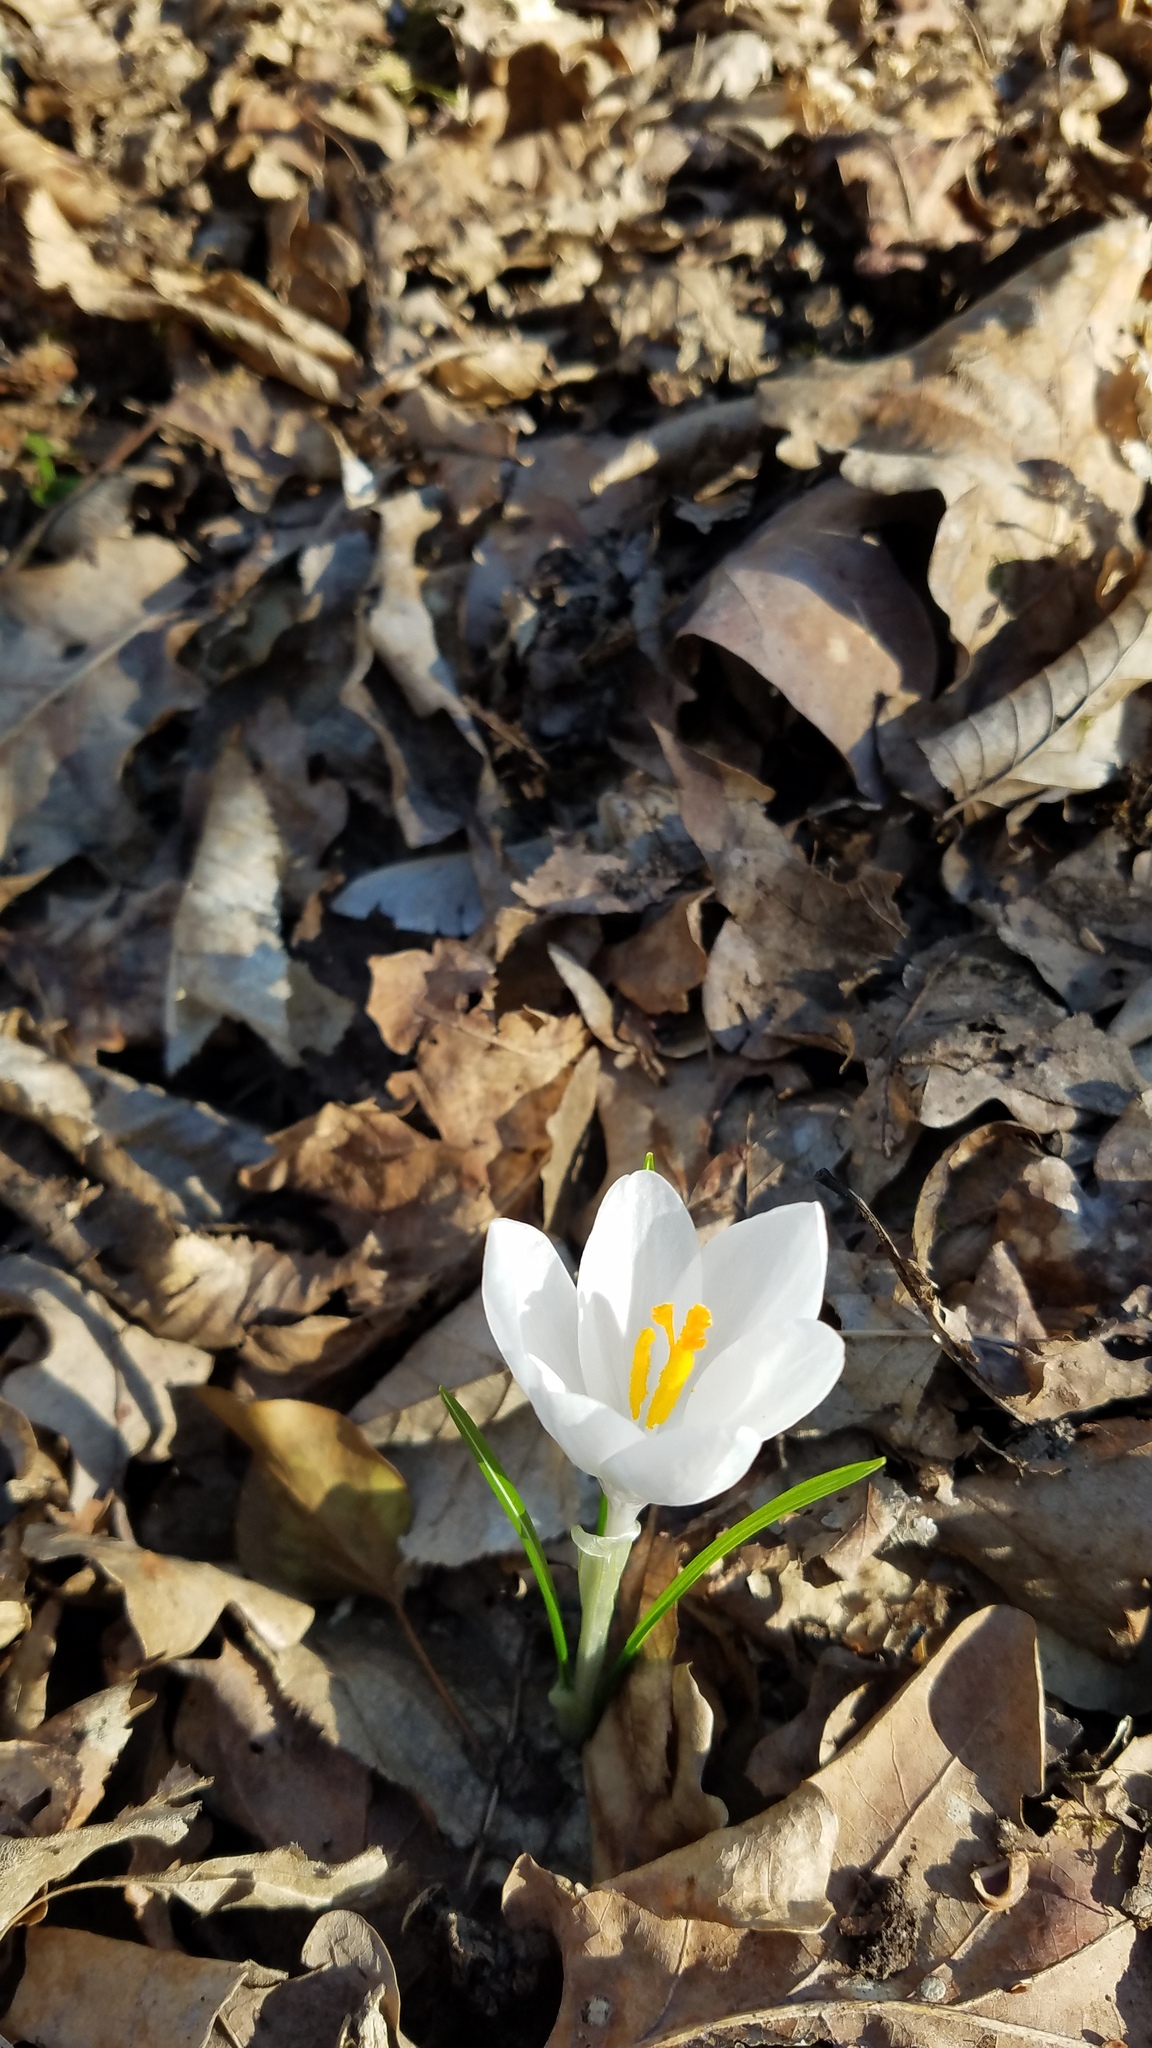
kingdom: Plantae
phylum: Tracheophyta
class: Liliopsida
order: Asparagales
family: Iridaceae
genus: Crocus
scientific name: Crocus heuffelianus
